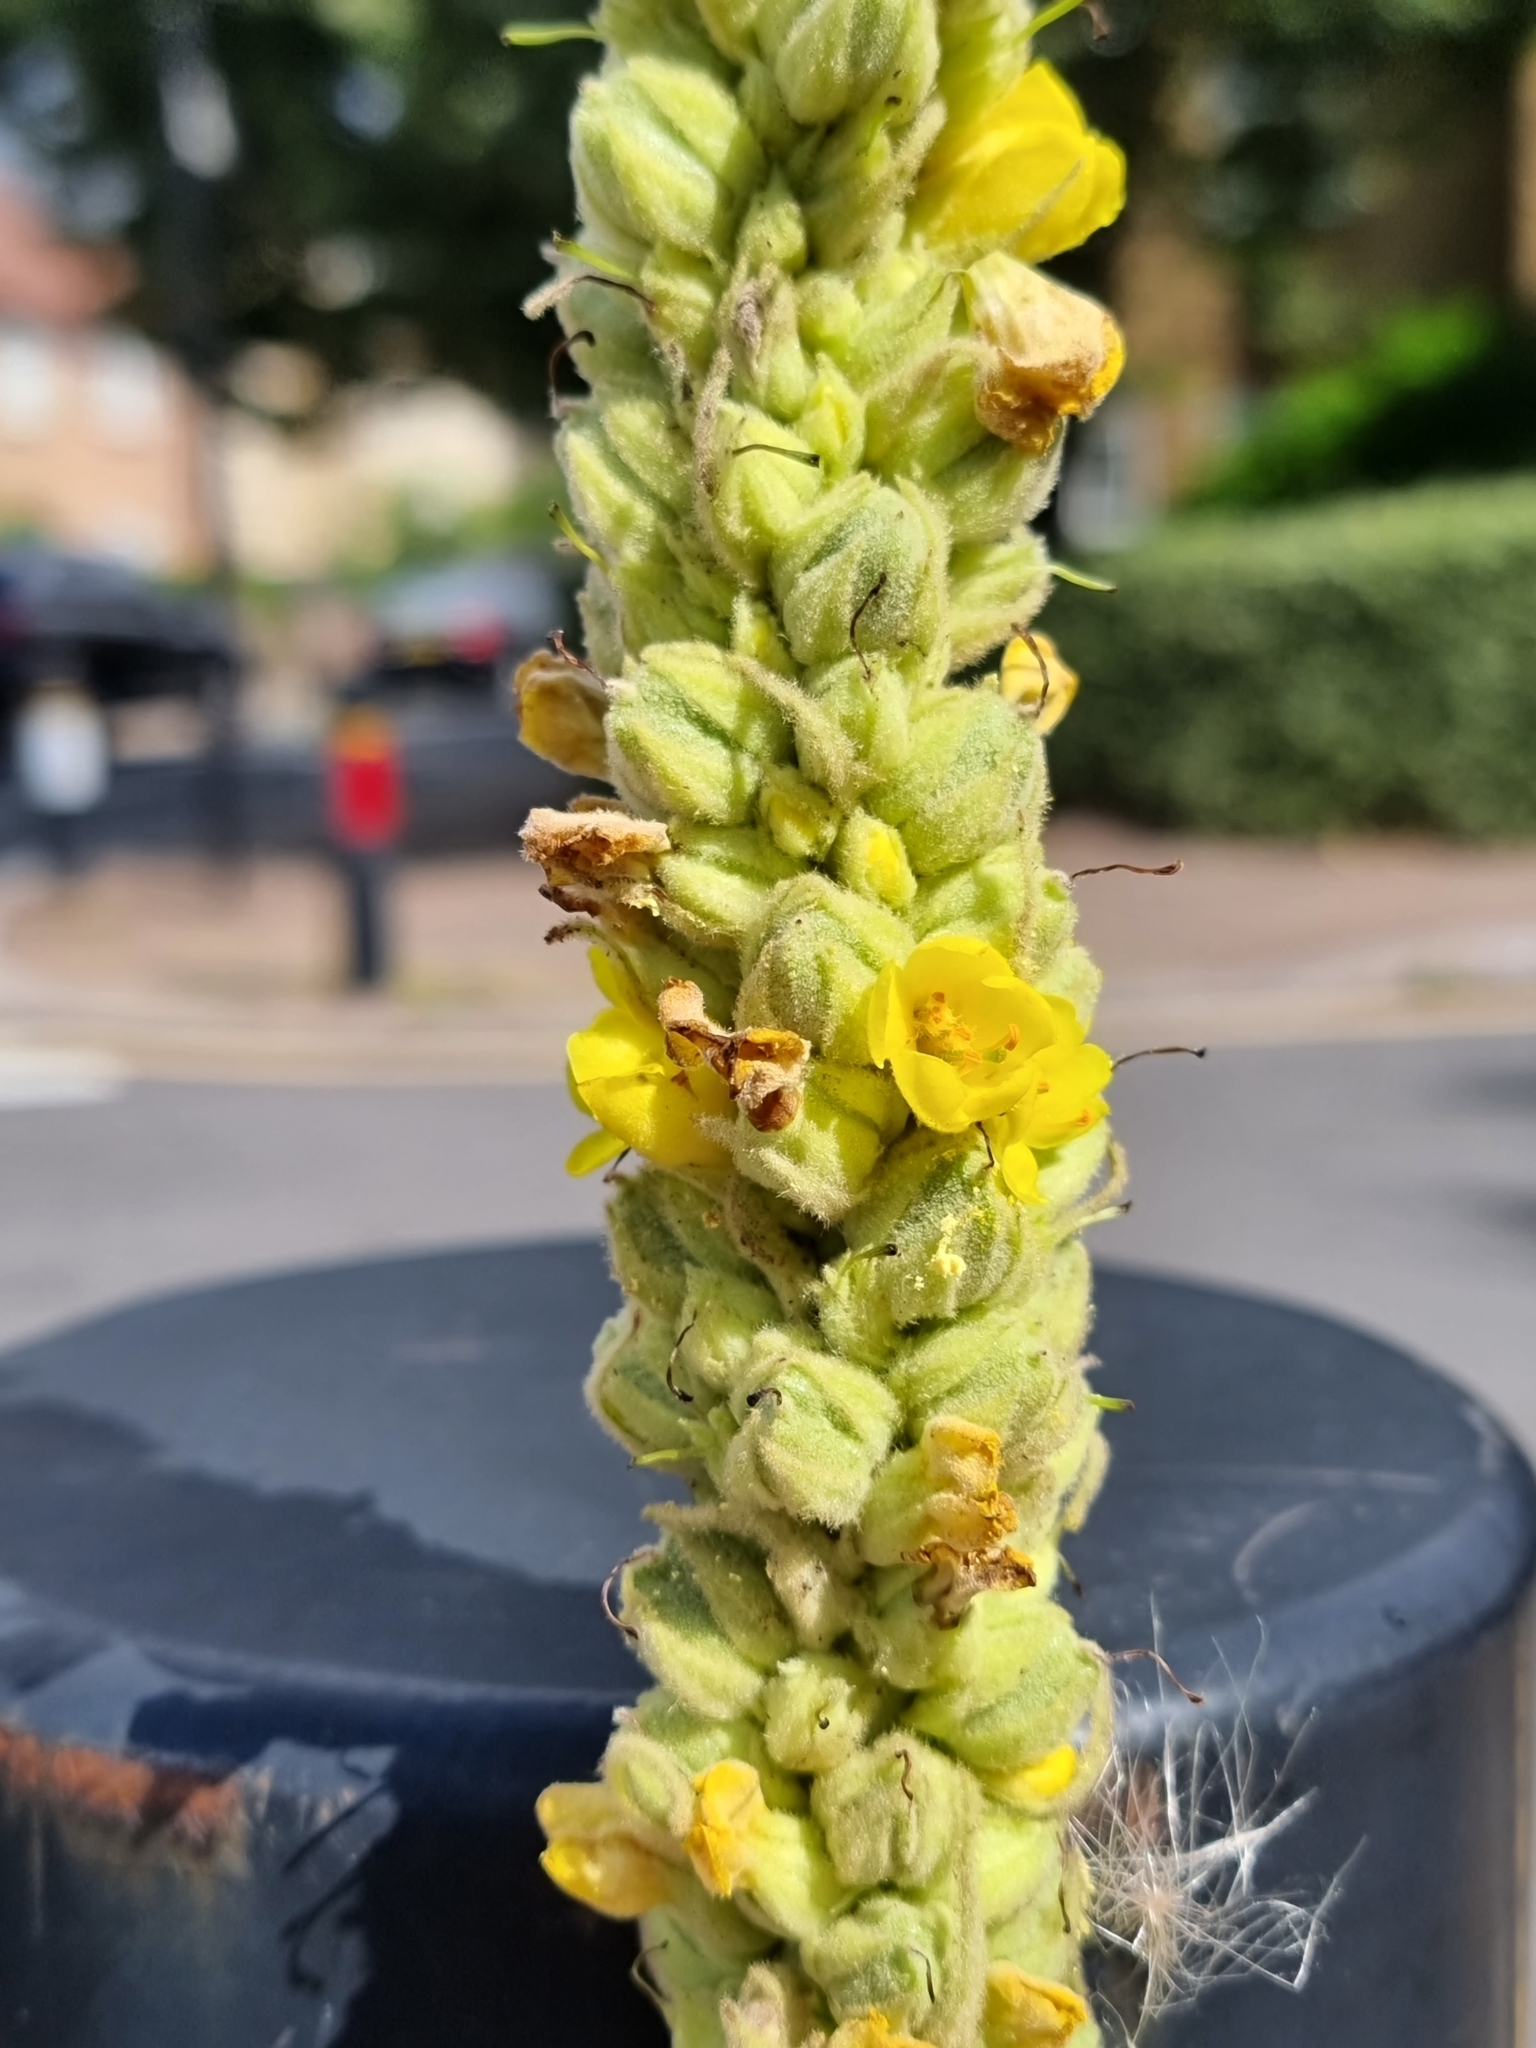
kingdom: Plantae
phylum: Tracheophyta
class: Magnoliopsida
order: Lamiales
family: Scrophulariaceae
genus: Verbascum
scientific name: Verbascum thapsus
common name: Common mullein
